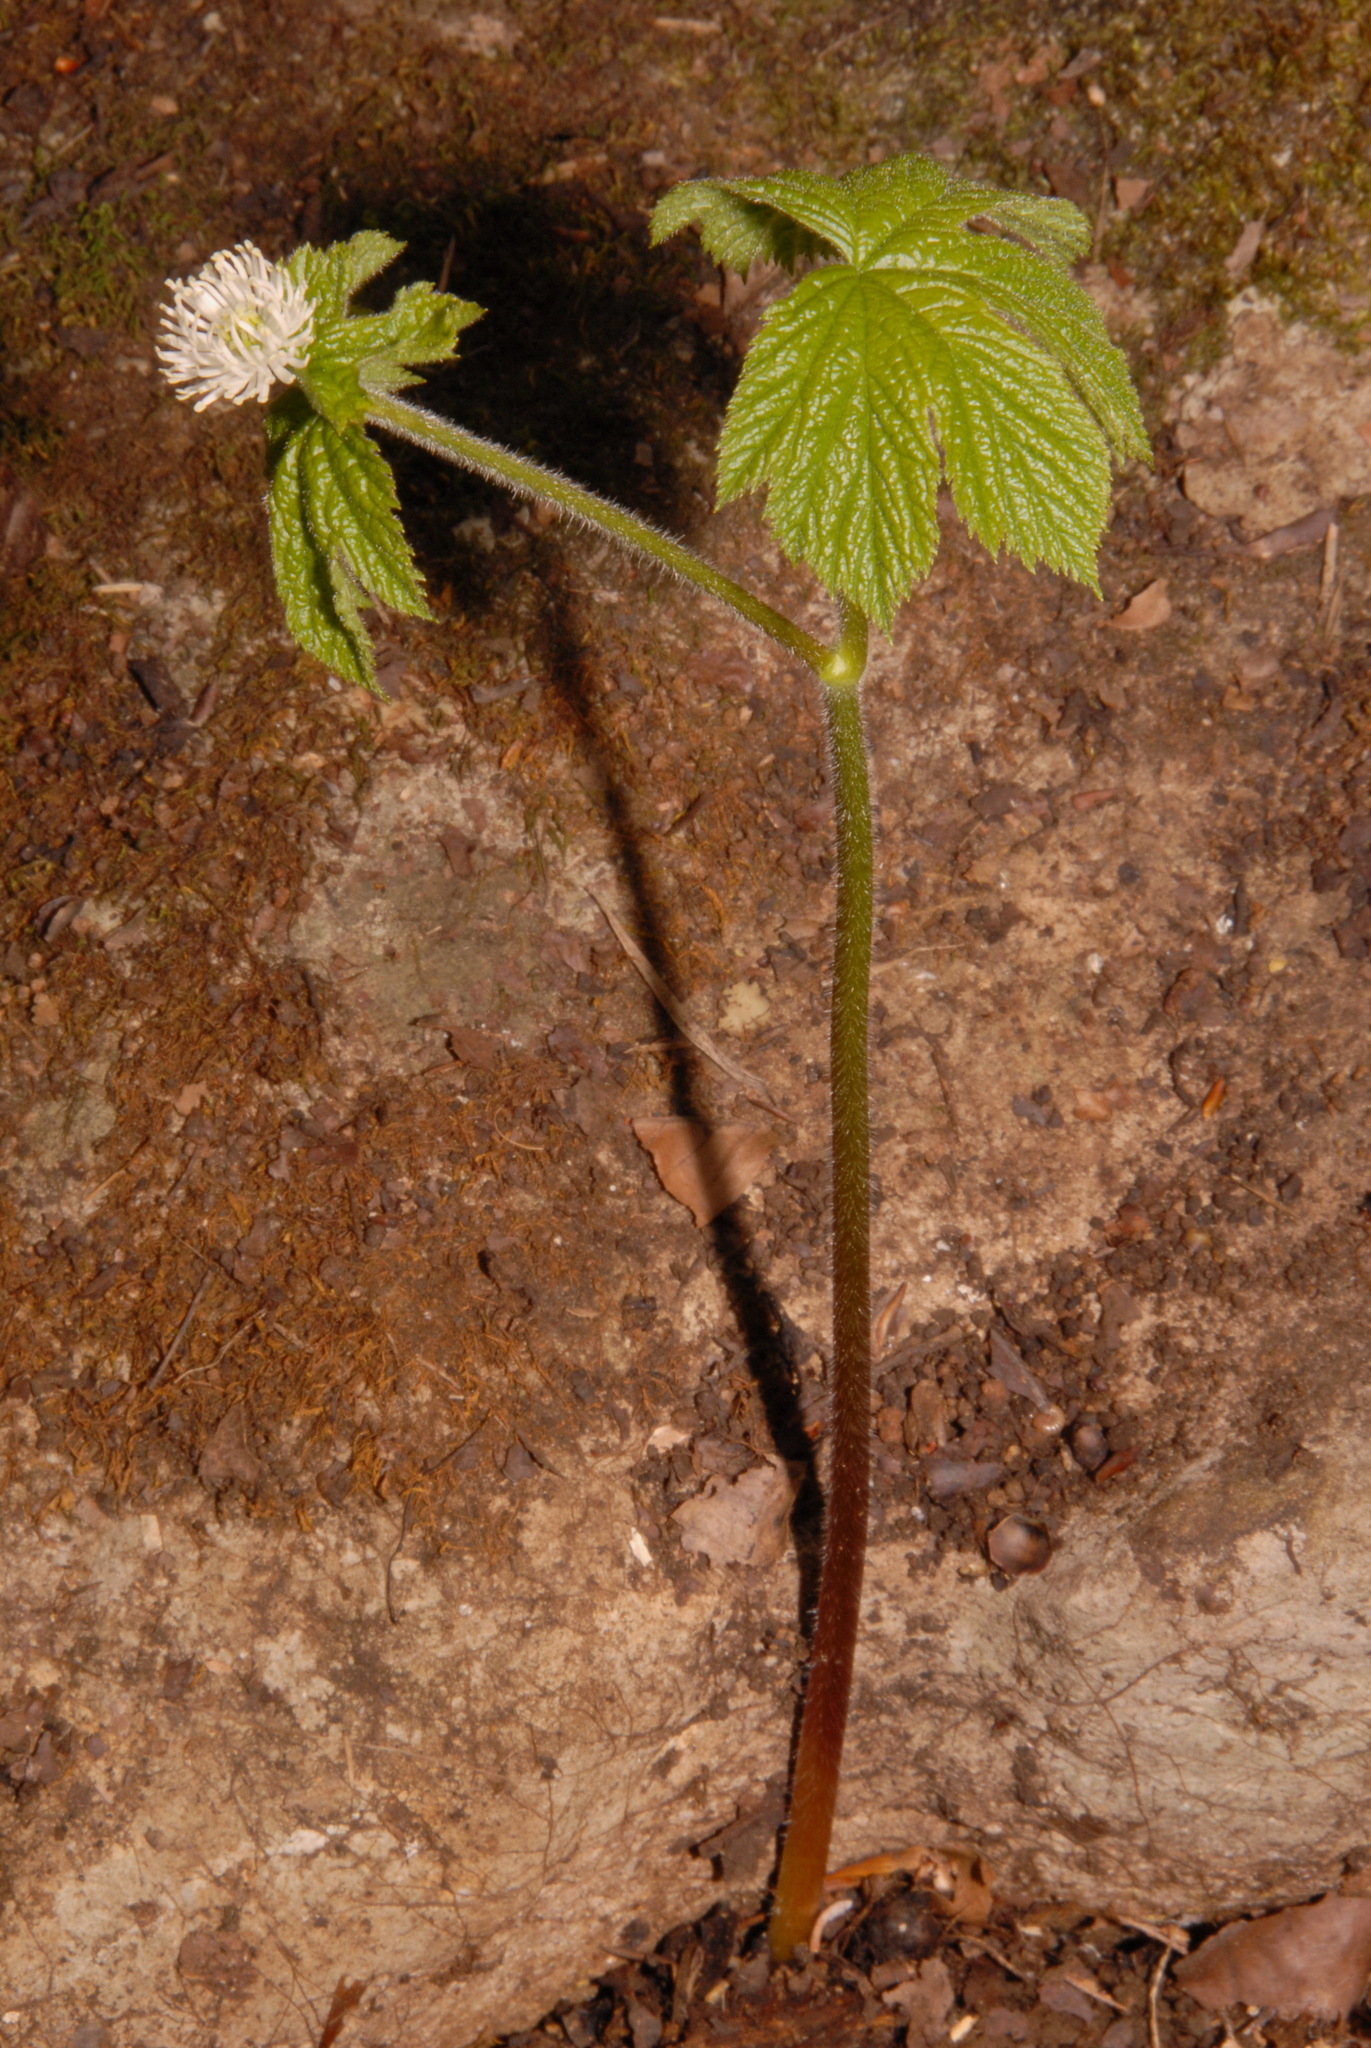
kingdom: Plantae
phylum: Tracheophyta
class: Magnoliopsida
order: Ranunculales
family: Ranunculaceae
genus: Hydrastis
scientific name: Hydrastis canadensis
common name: Goldenseal
